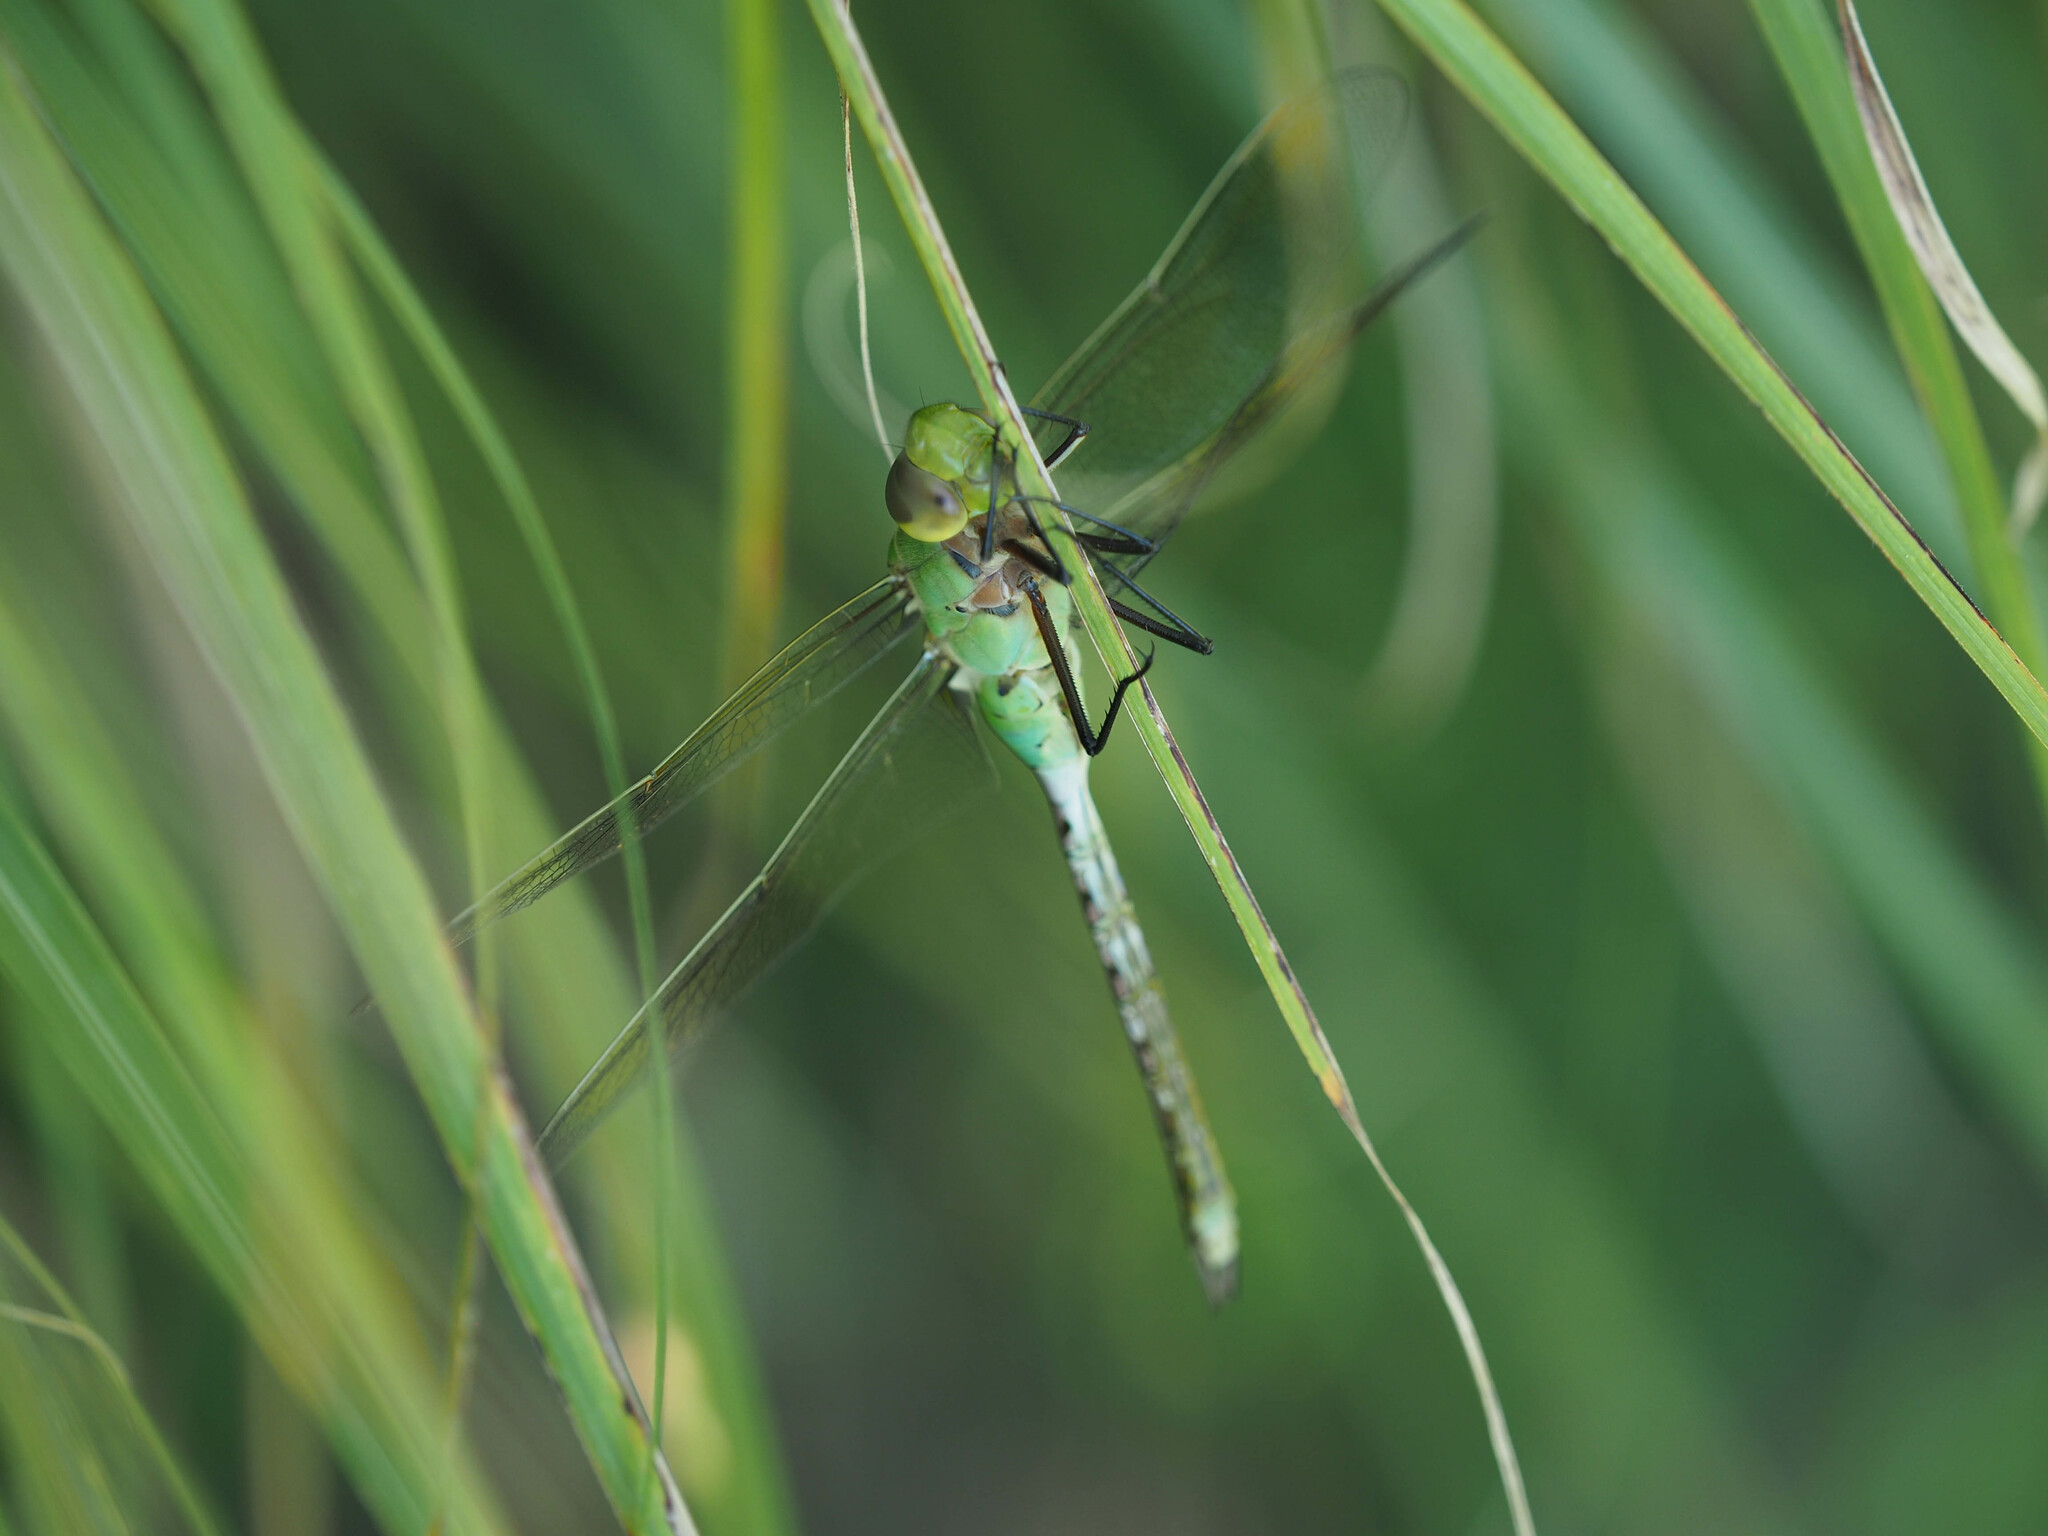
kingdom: Animalia
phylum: Arthropoda
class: Insecta
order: Odonata
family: Aeshnidae
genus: Anax
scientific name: Anax junius
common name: Common green darner
